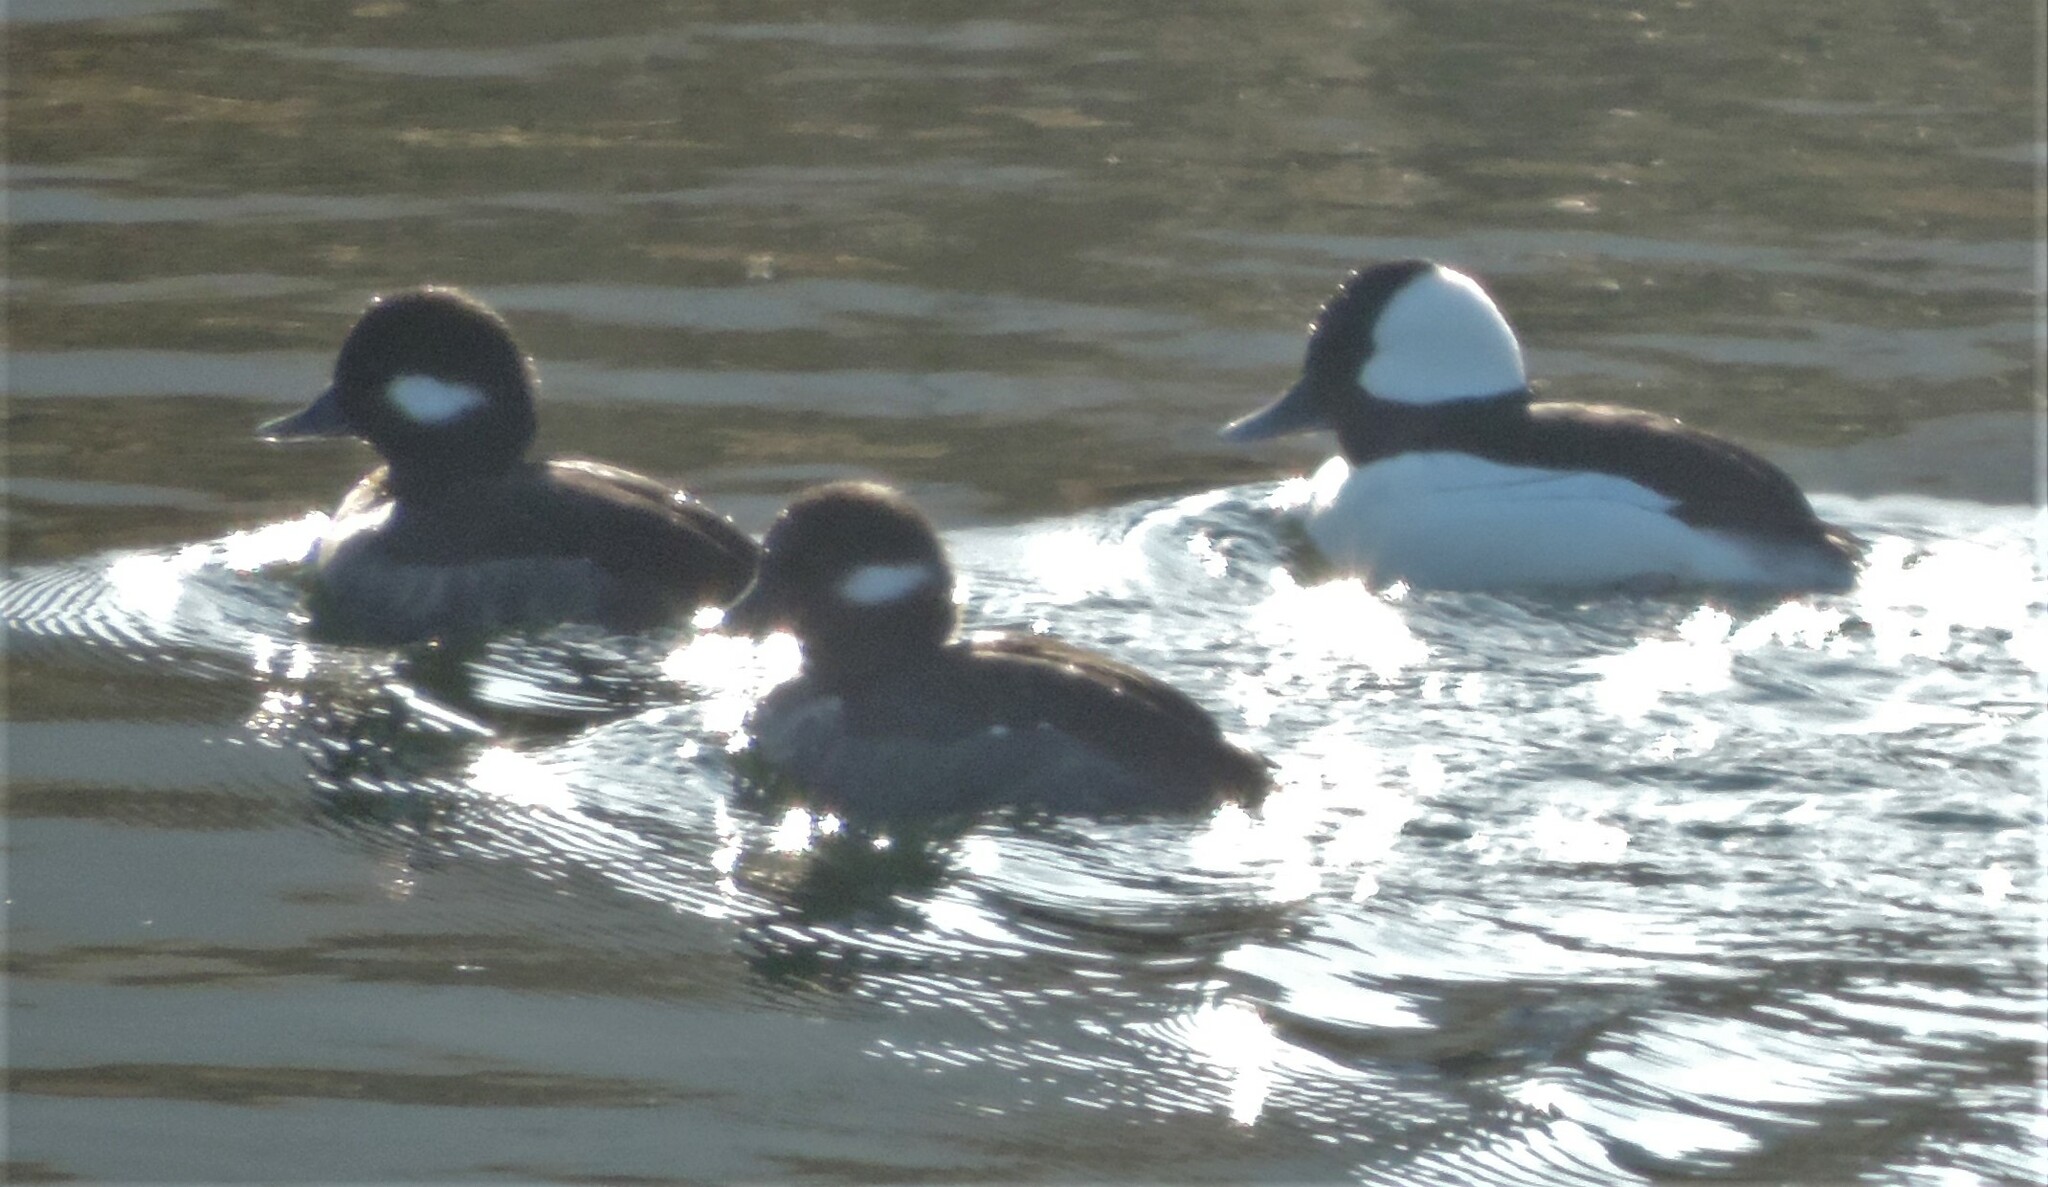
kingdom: Animalia
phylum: Chordata
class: Aves
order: Anseriformes
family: Anatidae
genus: Bucephala
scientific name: Bucephala albeola
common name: Bufflehead
